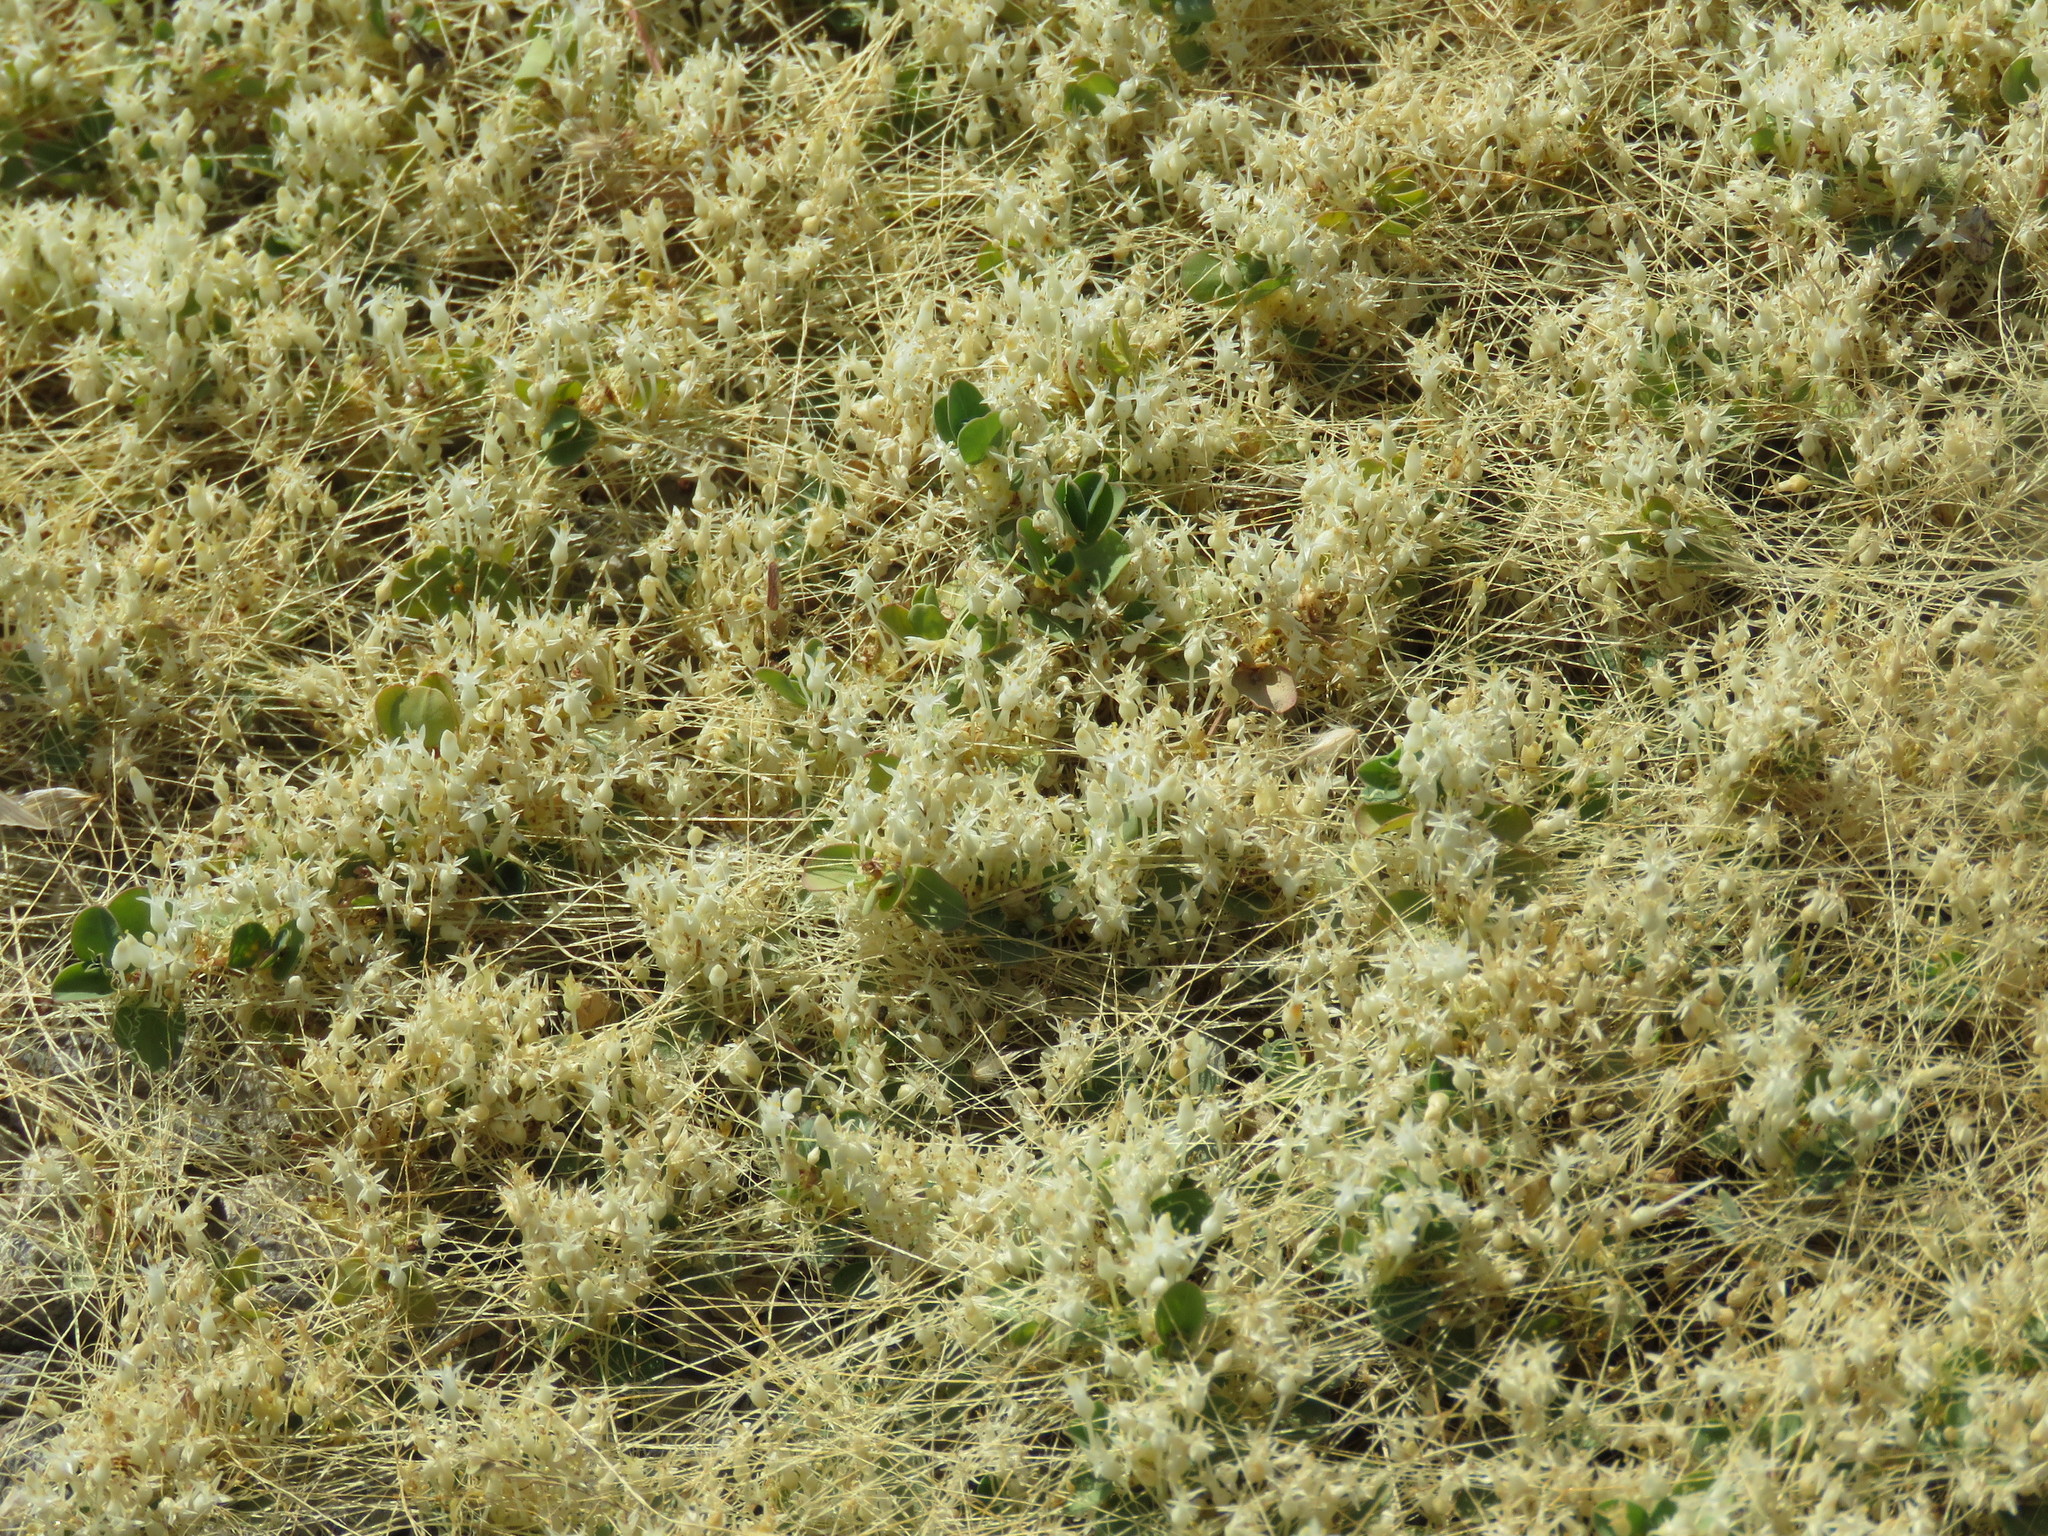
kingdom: Plantae
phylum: Tracheophyta
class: Magnoliopsida
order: Solanales
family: Convolvulaceae
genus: Cuscuta
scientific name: Cuscuta leptantha
